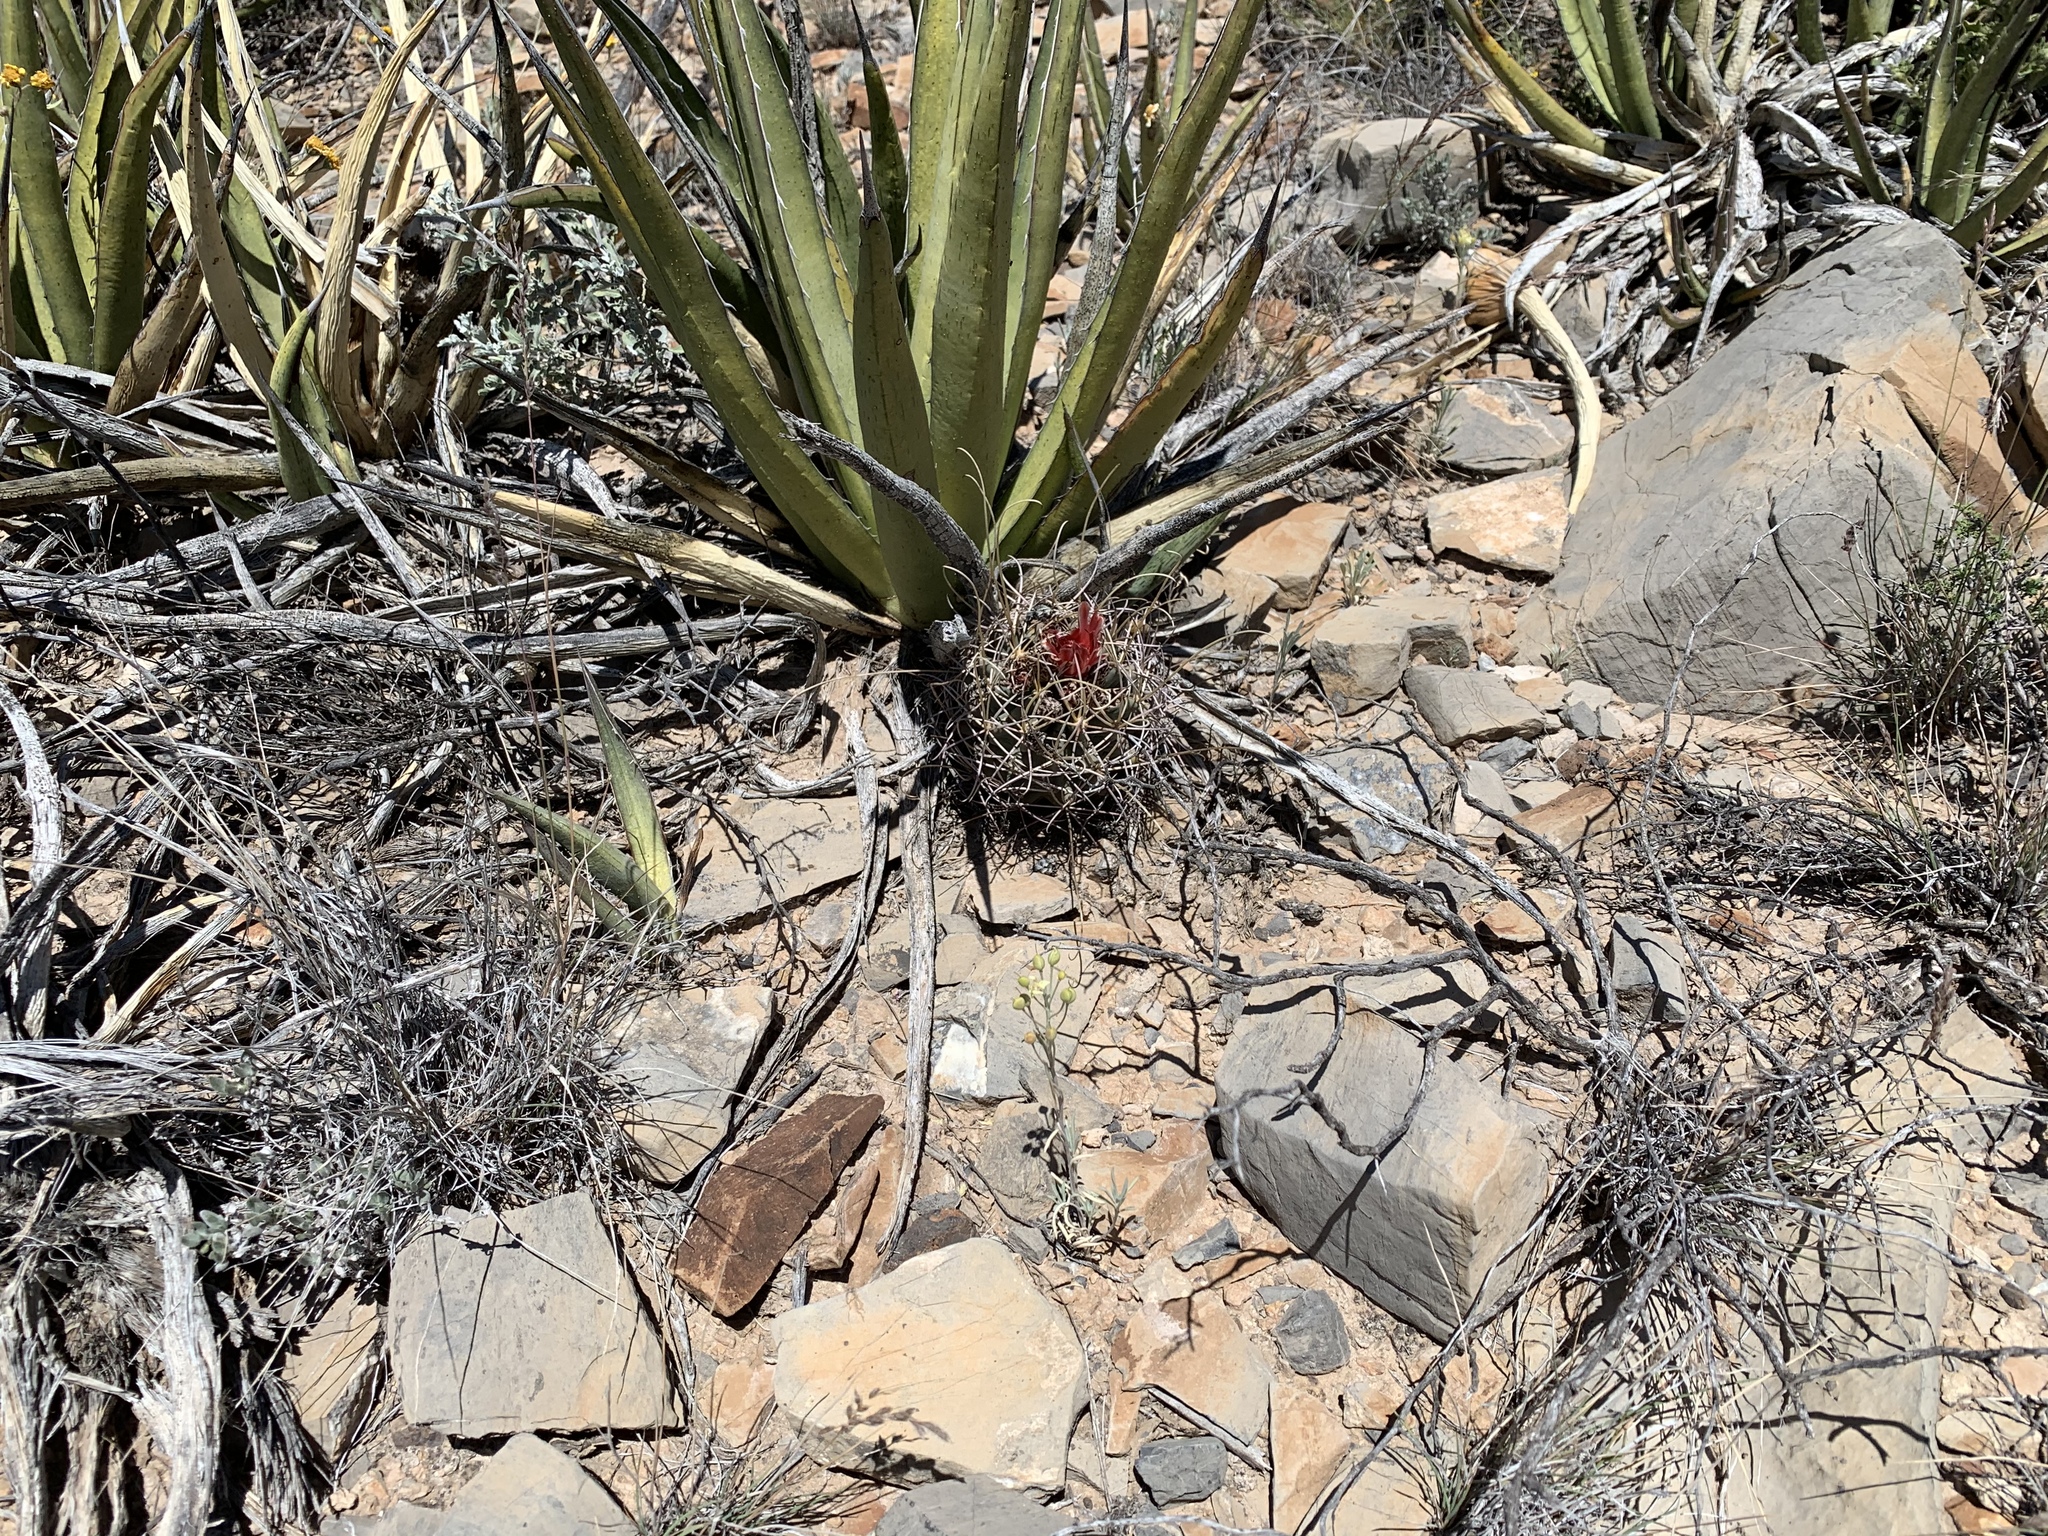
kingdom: Plantae
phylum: Tracheophyta
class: Magnoliopsida
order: Caryophyllales
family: Cactaceae
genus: Ferocactus
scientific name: Ferocactus uncinatus
